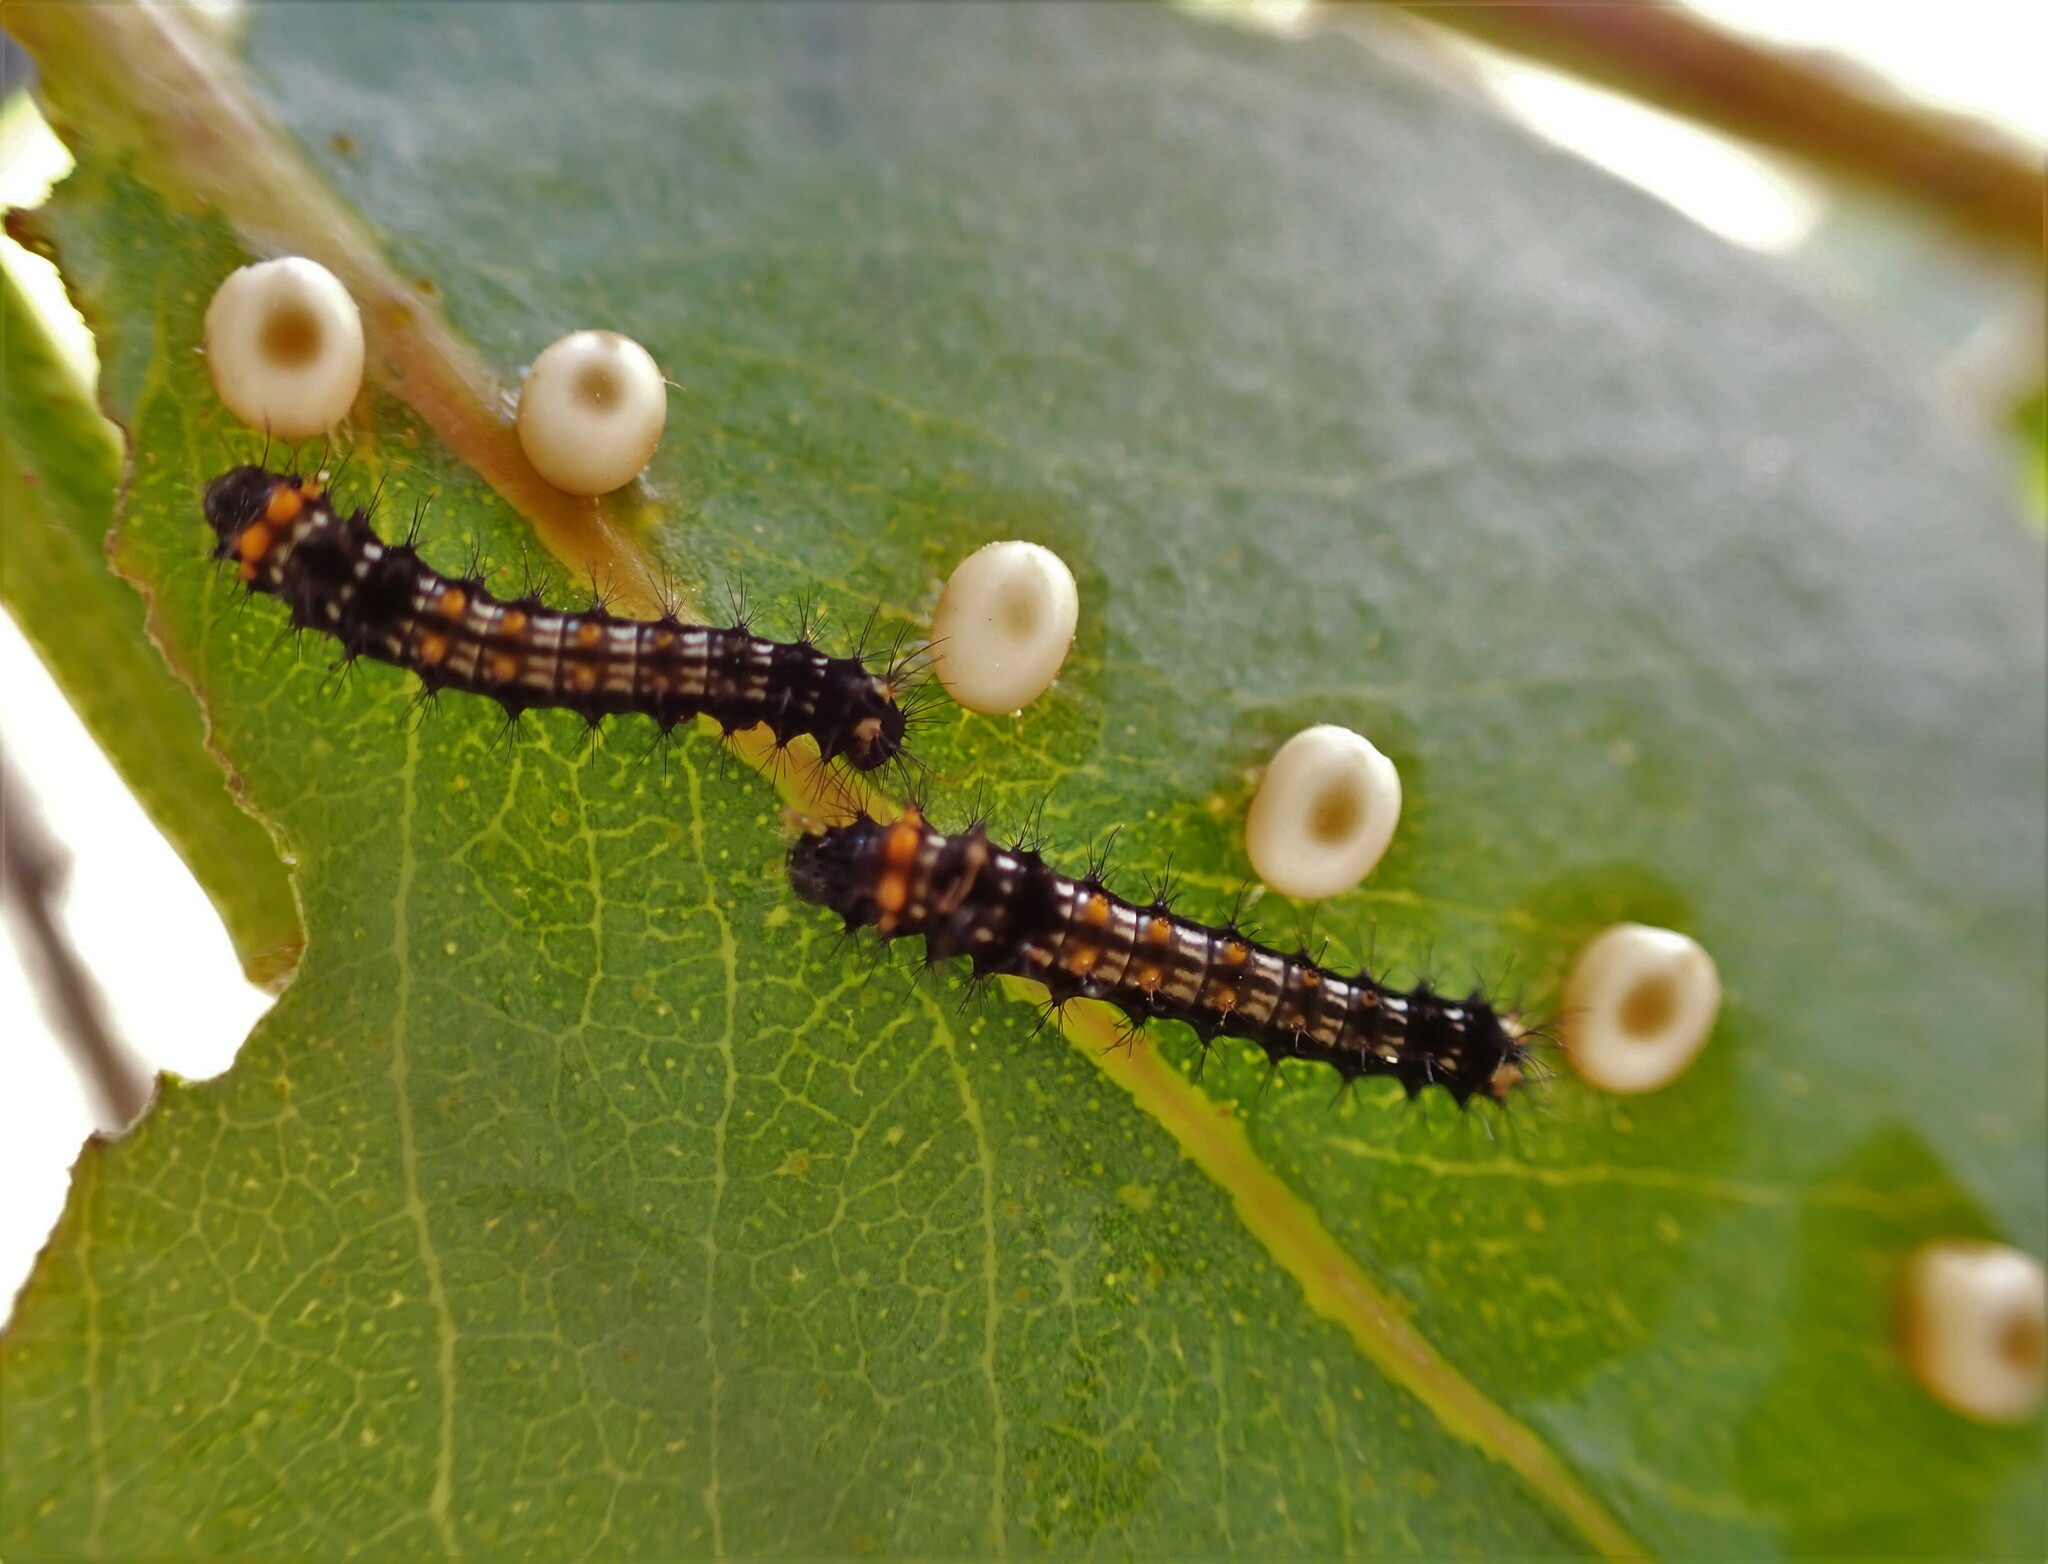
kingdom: Animalia
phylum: Arthropoda
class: Insecta
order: Lepidoptera
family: Saturniidae
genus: Opodiphthera
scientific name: Opodiphthera
